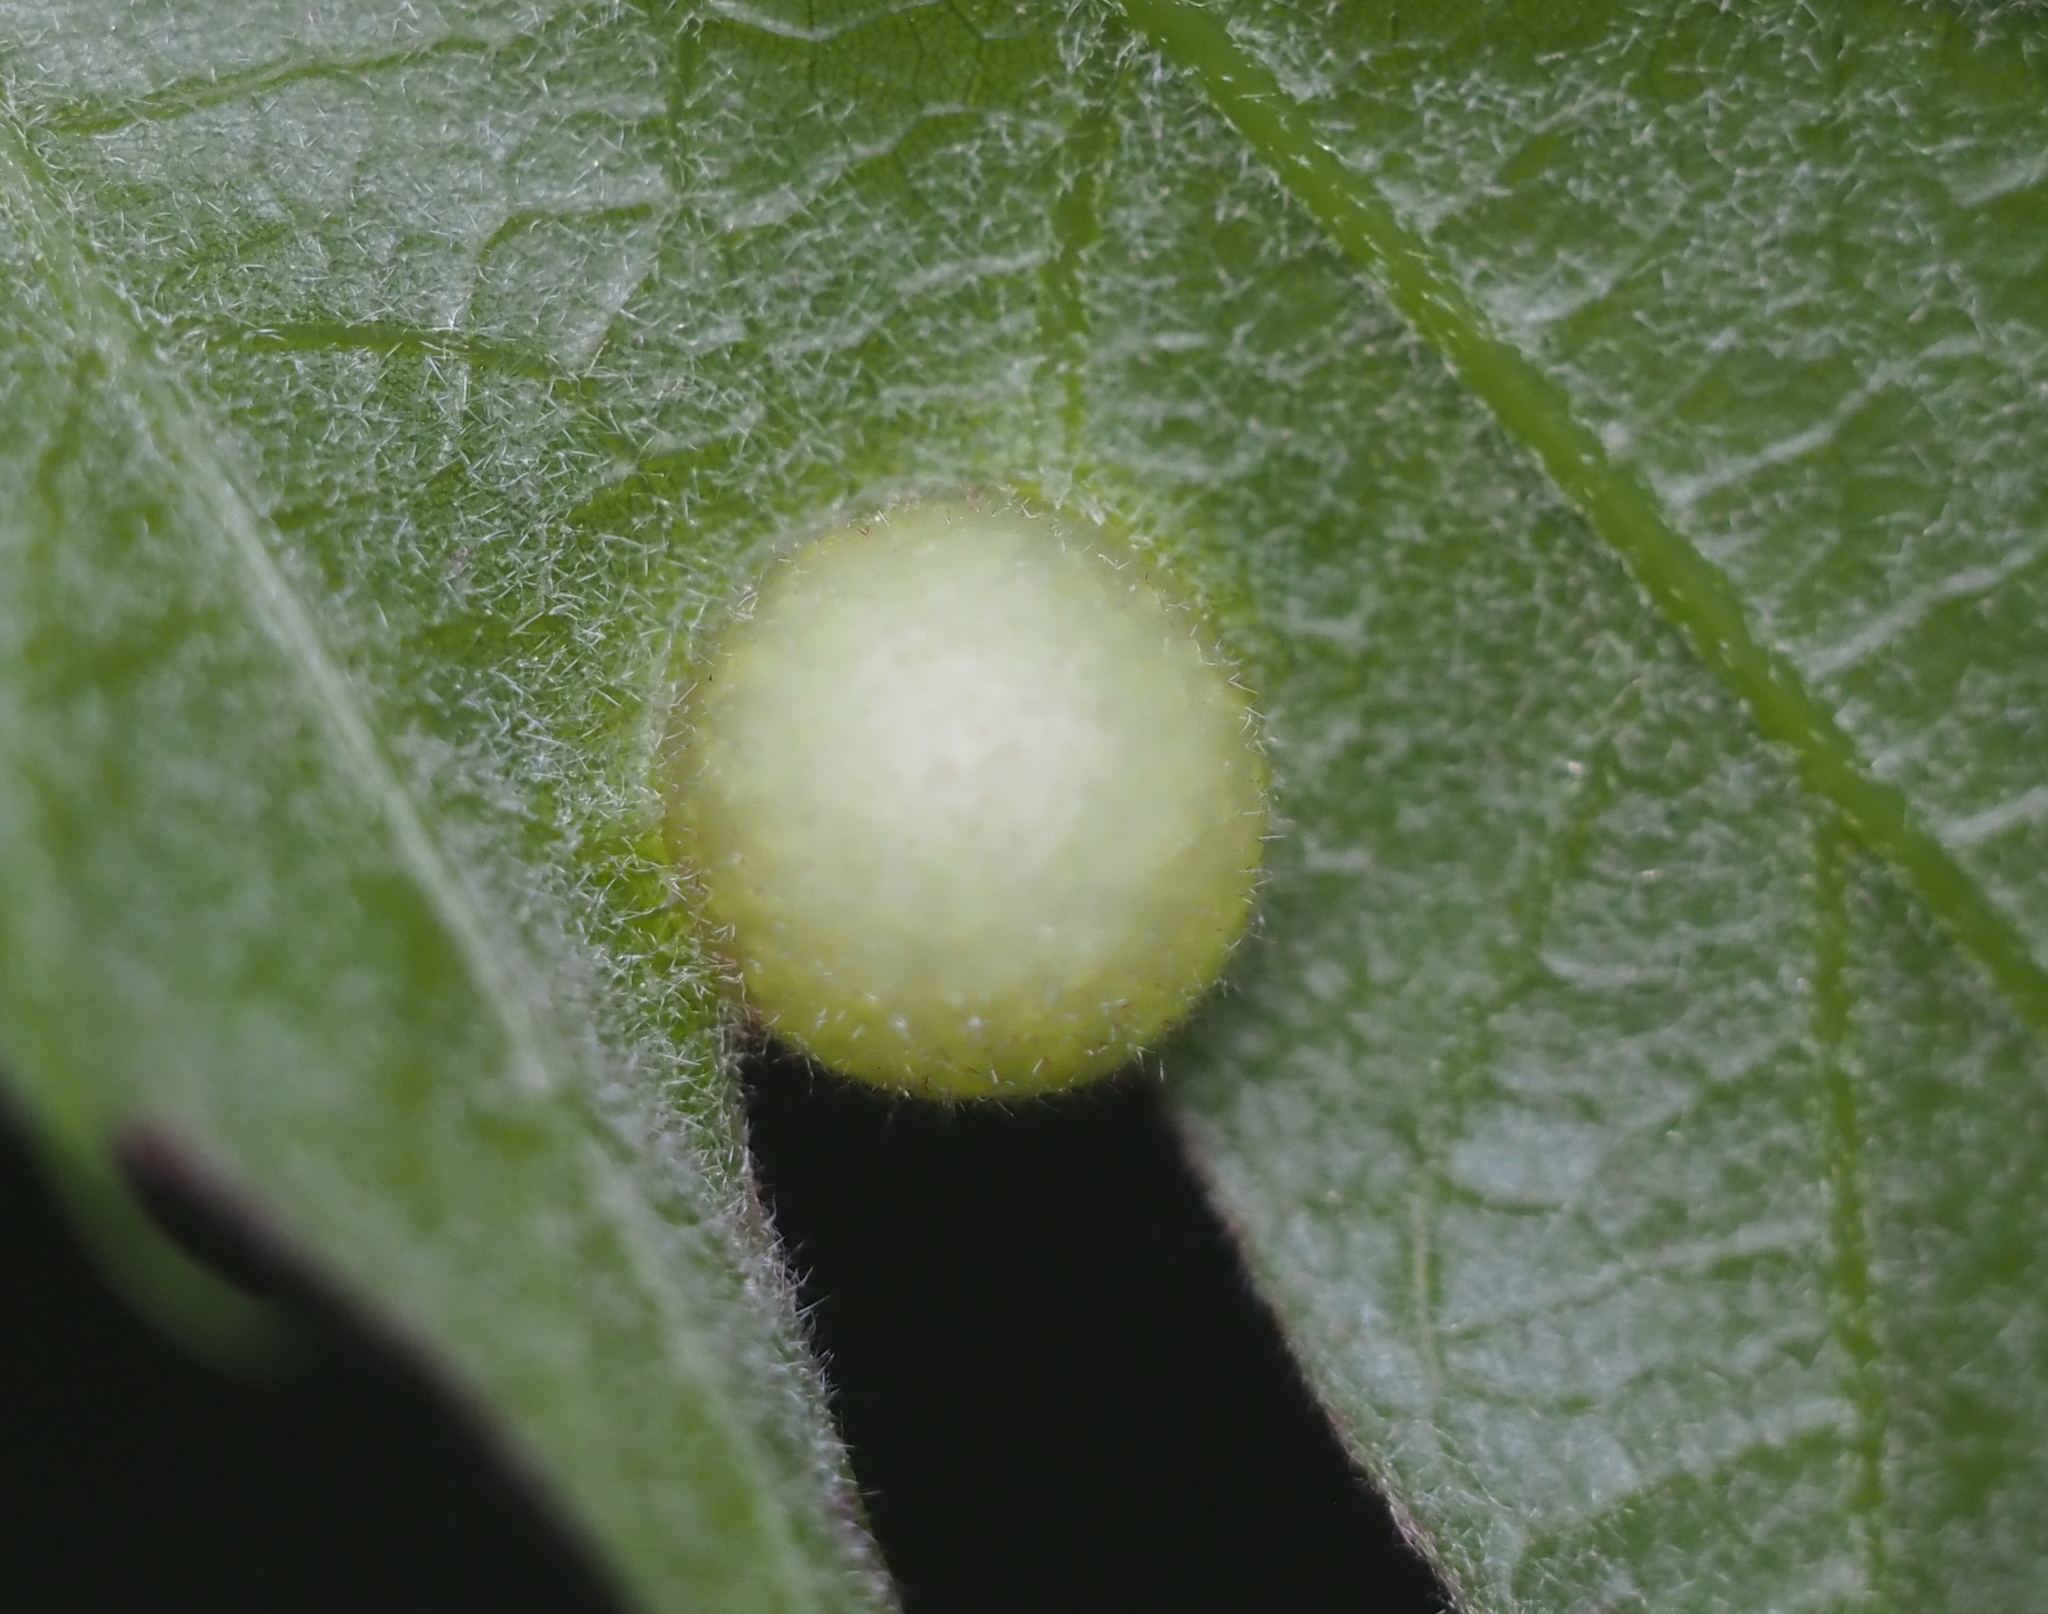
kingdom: Animalia
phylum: Arthropoda
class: Insecta
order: Hymenoptera
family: Cynipidae
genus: Amphibolips
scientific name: Amphibolips
